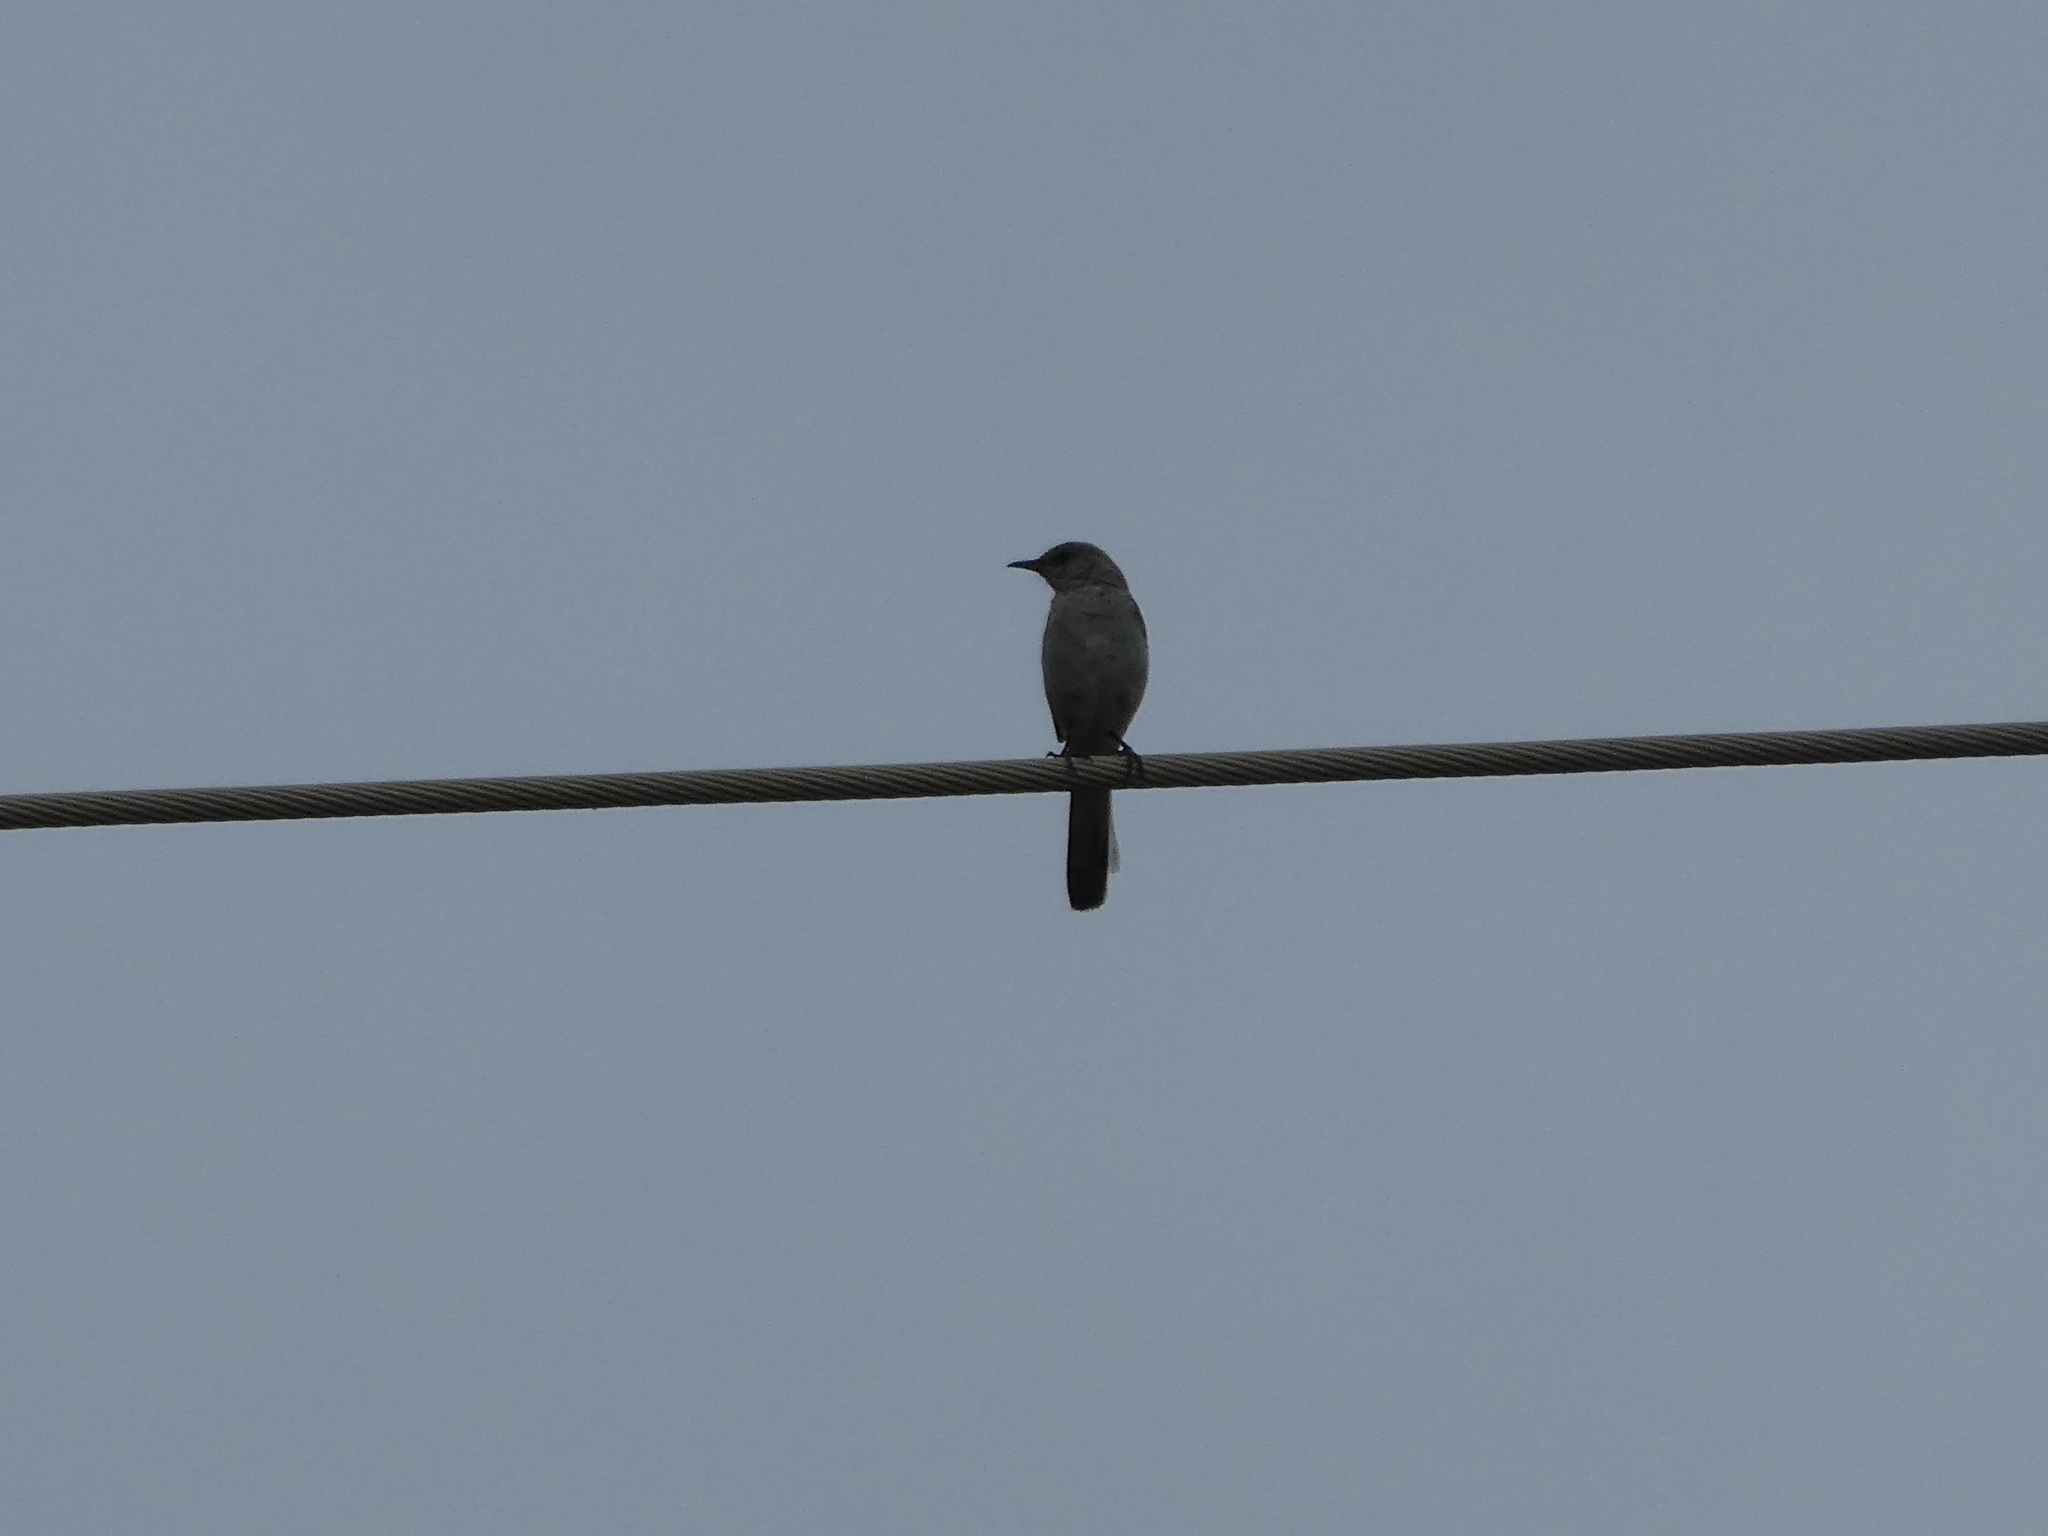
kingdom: Animalia
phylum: Chordata
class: Aves
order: Passeriformes
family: Mimidae
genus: Mimus
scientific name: Mimus polyglottos
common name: Northern mockingbird
